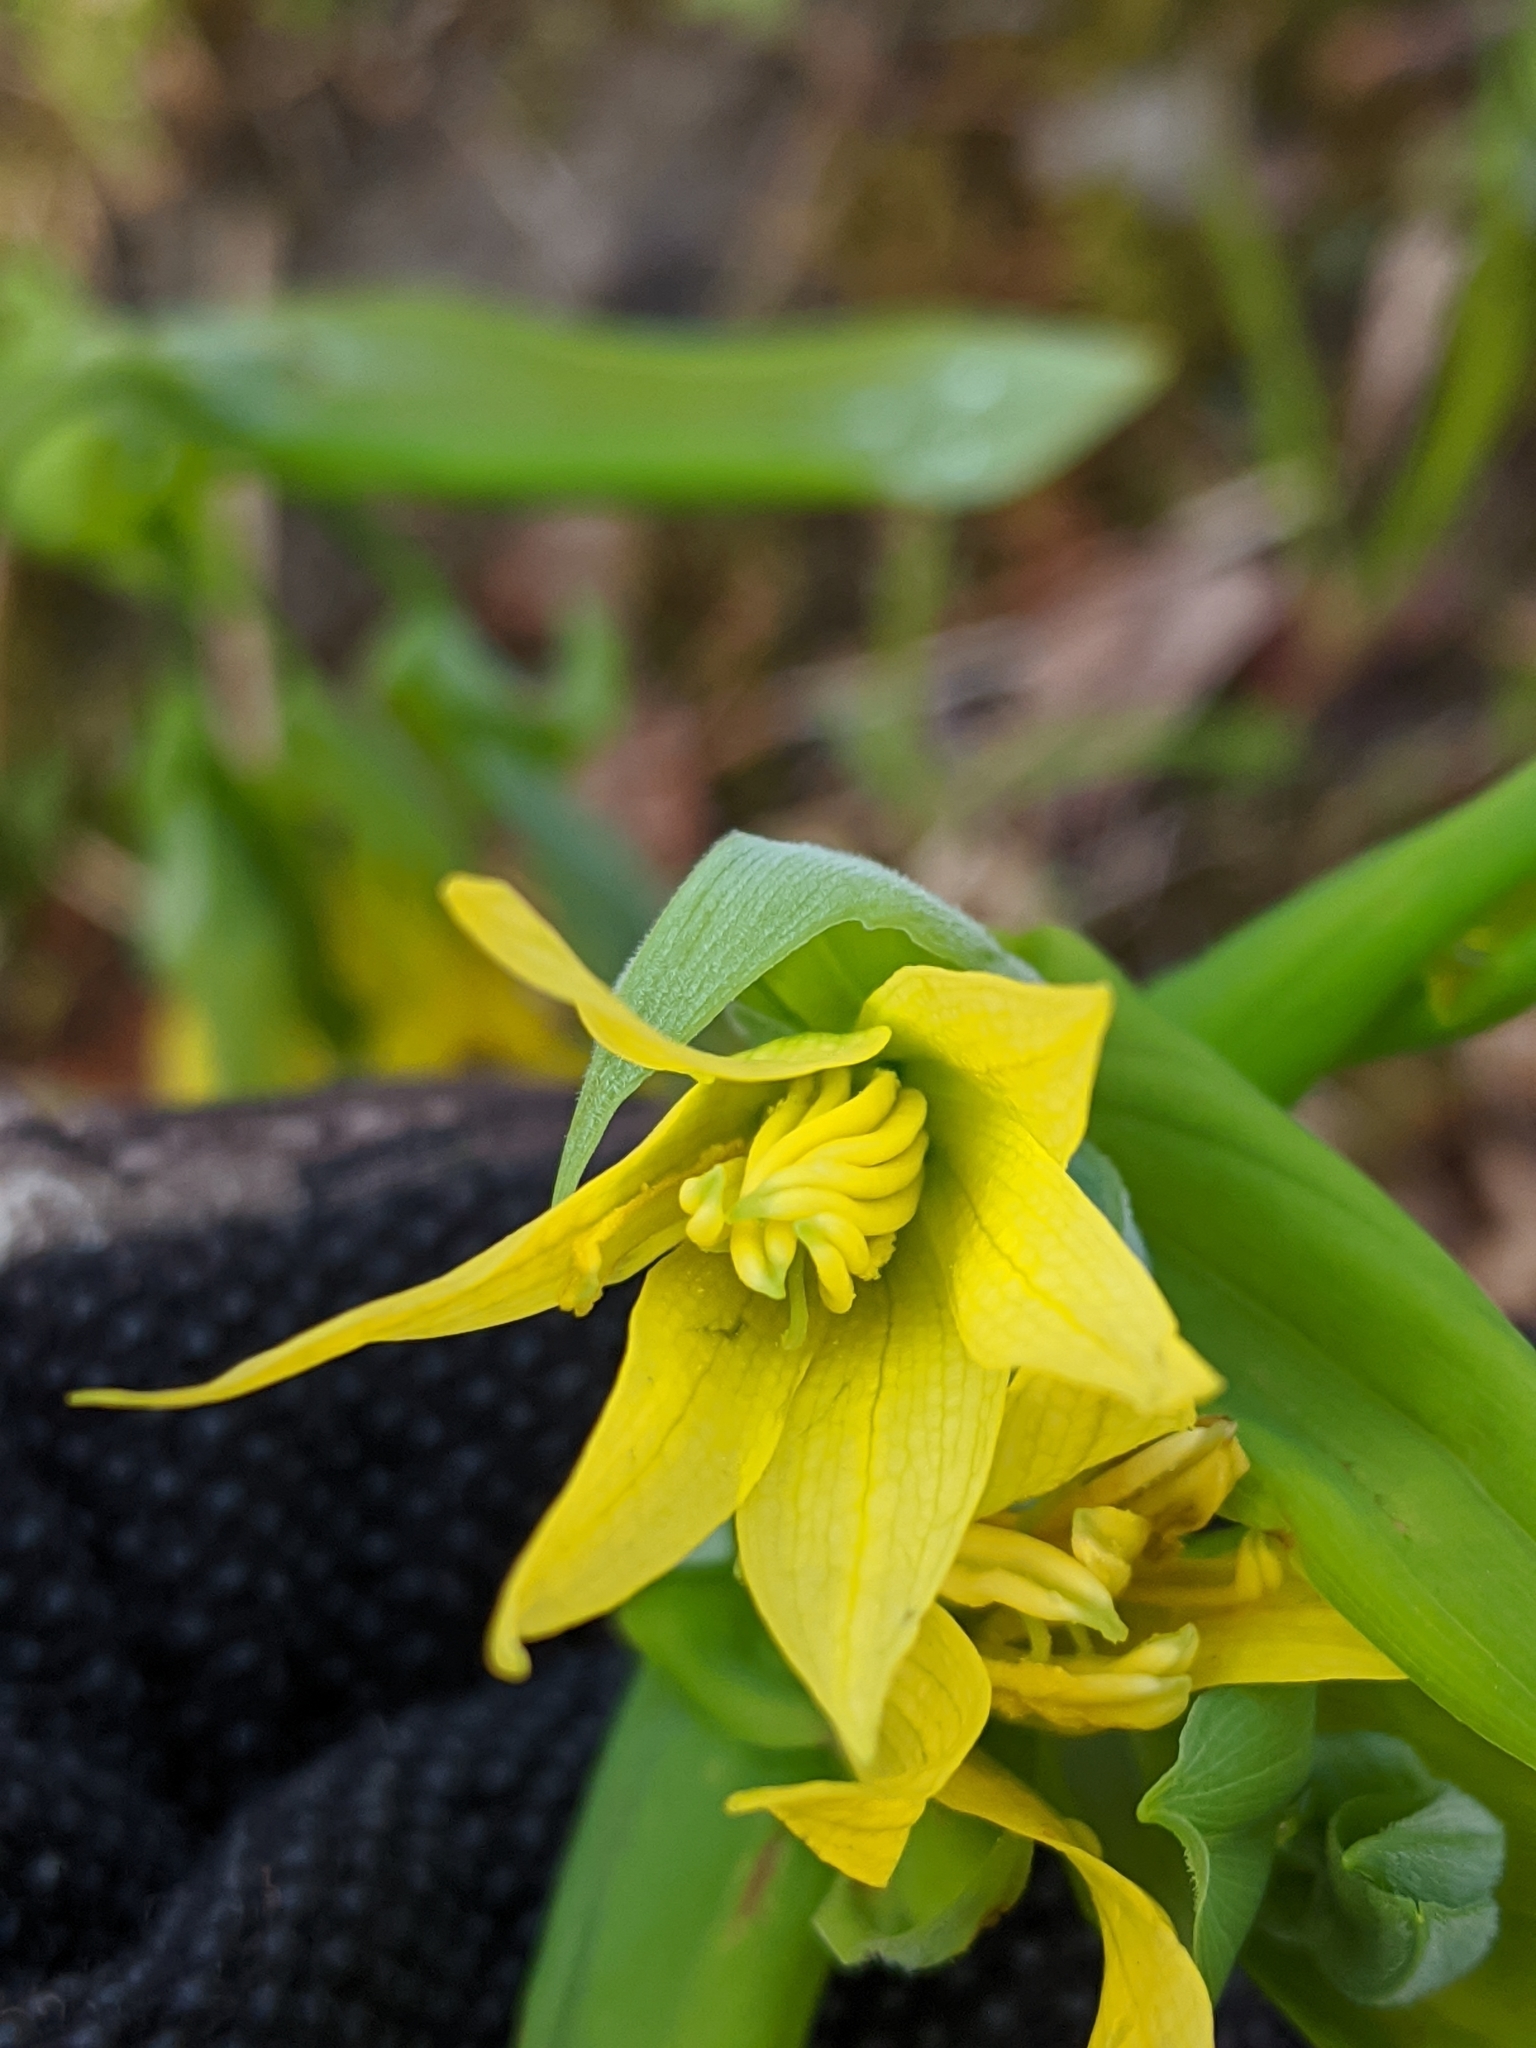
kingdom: Plantae
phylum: Tracheophyta
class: Liliopsida
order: Liliales
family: Colchicaceae
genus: Uvularia
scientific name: Uvularia grandiflora
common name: Bellwort
